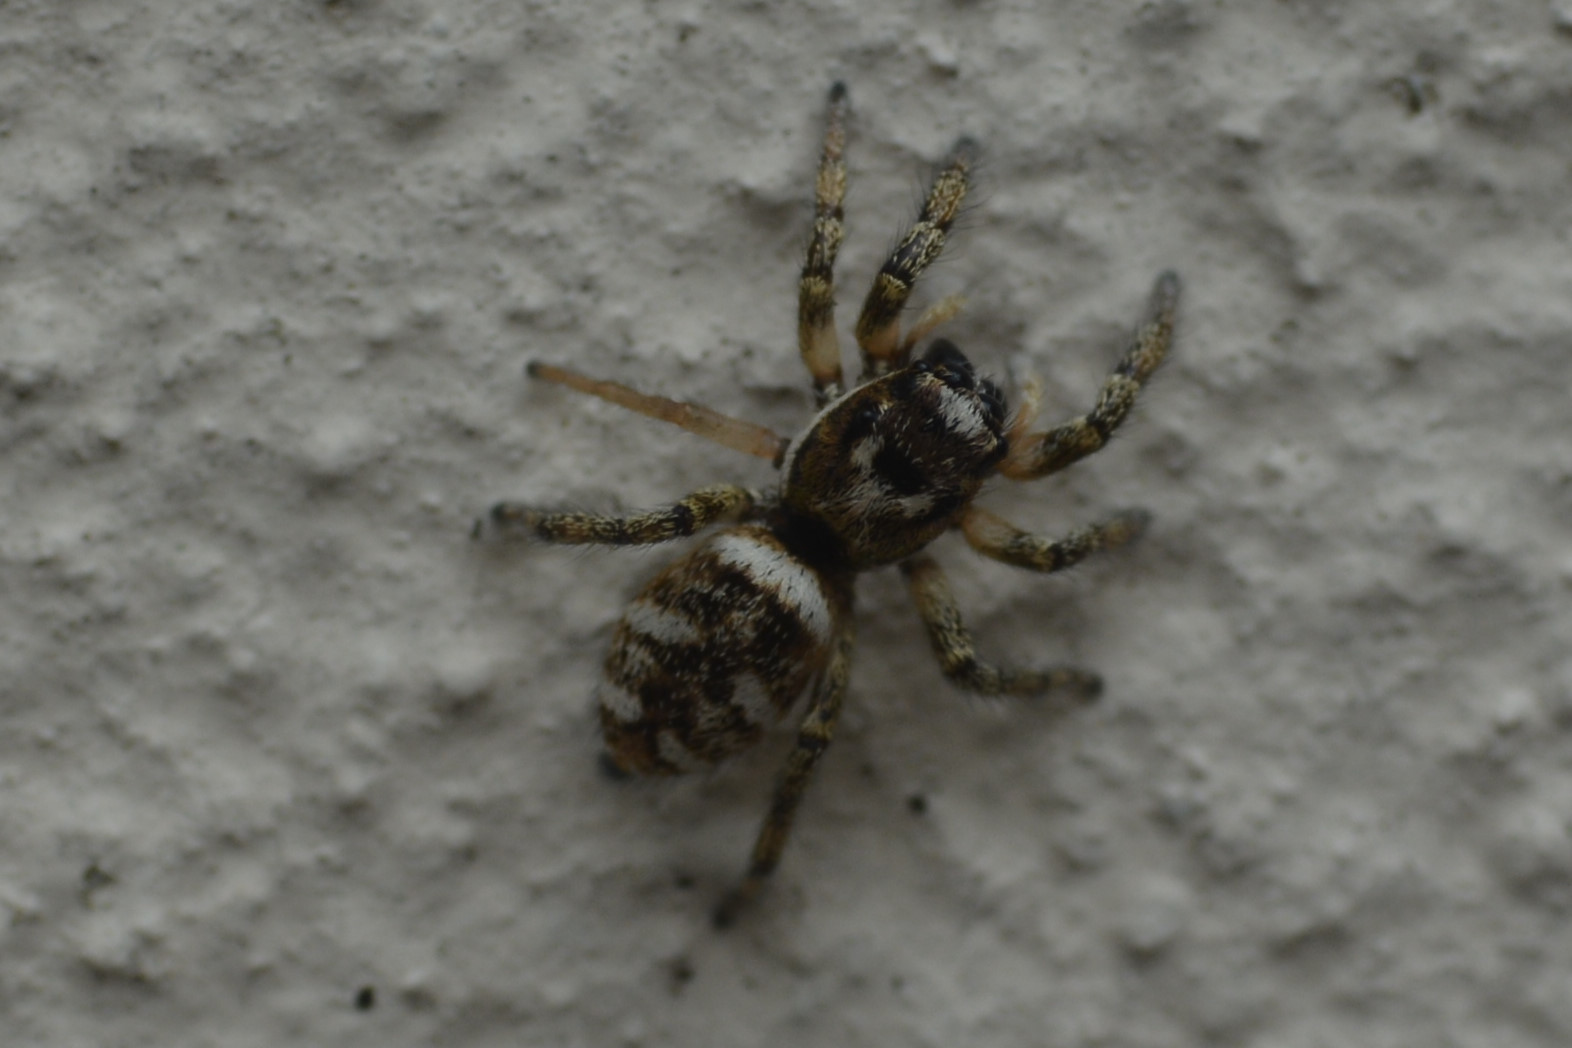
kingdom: Animalia
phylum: Arthropoda
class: Arachnida
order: Araneae
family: Salticidae
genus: Salticus
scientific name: Salticus scenicus
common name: Zebra jumper
